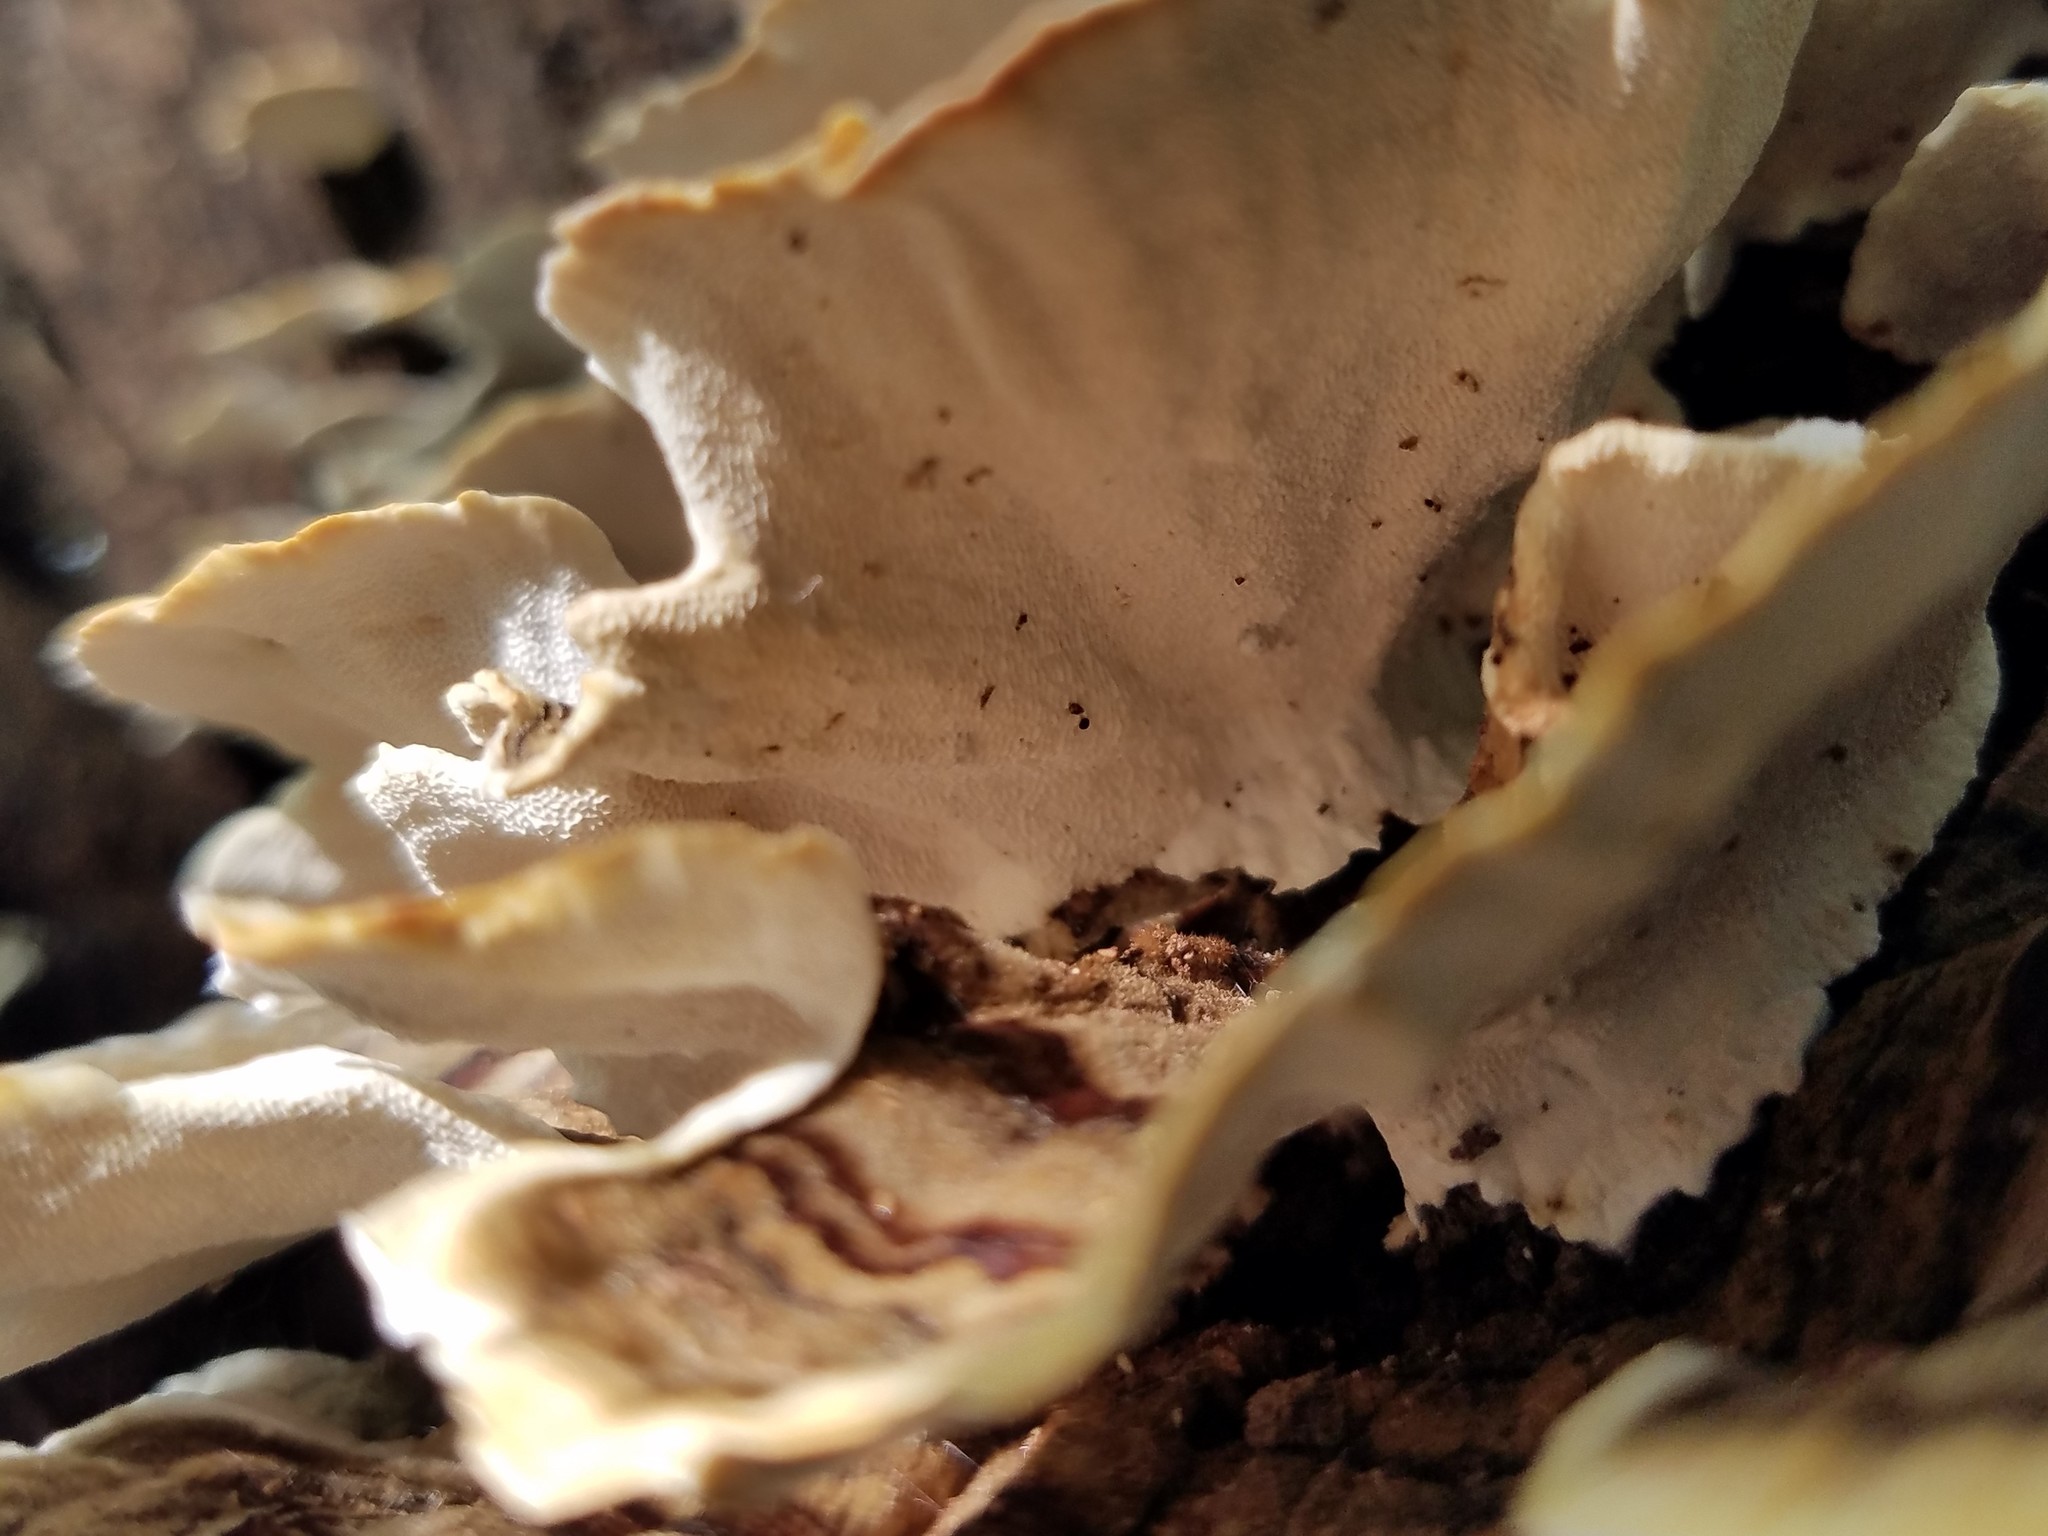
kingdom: Fungi
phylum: Basidiomycota
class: Agaricomycetes
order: Polyporales
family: Polyporaceae
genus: Trametes
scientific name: Trametes versicolor
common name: Turkeytail
